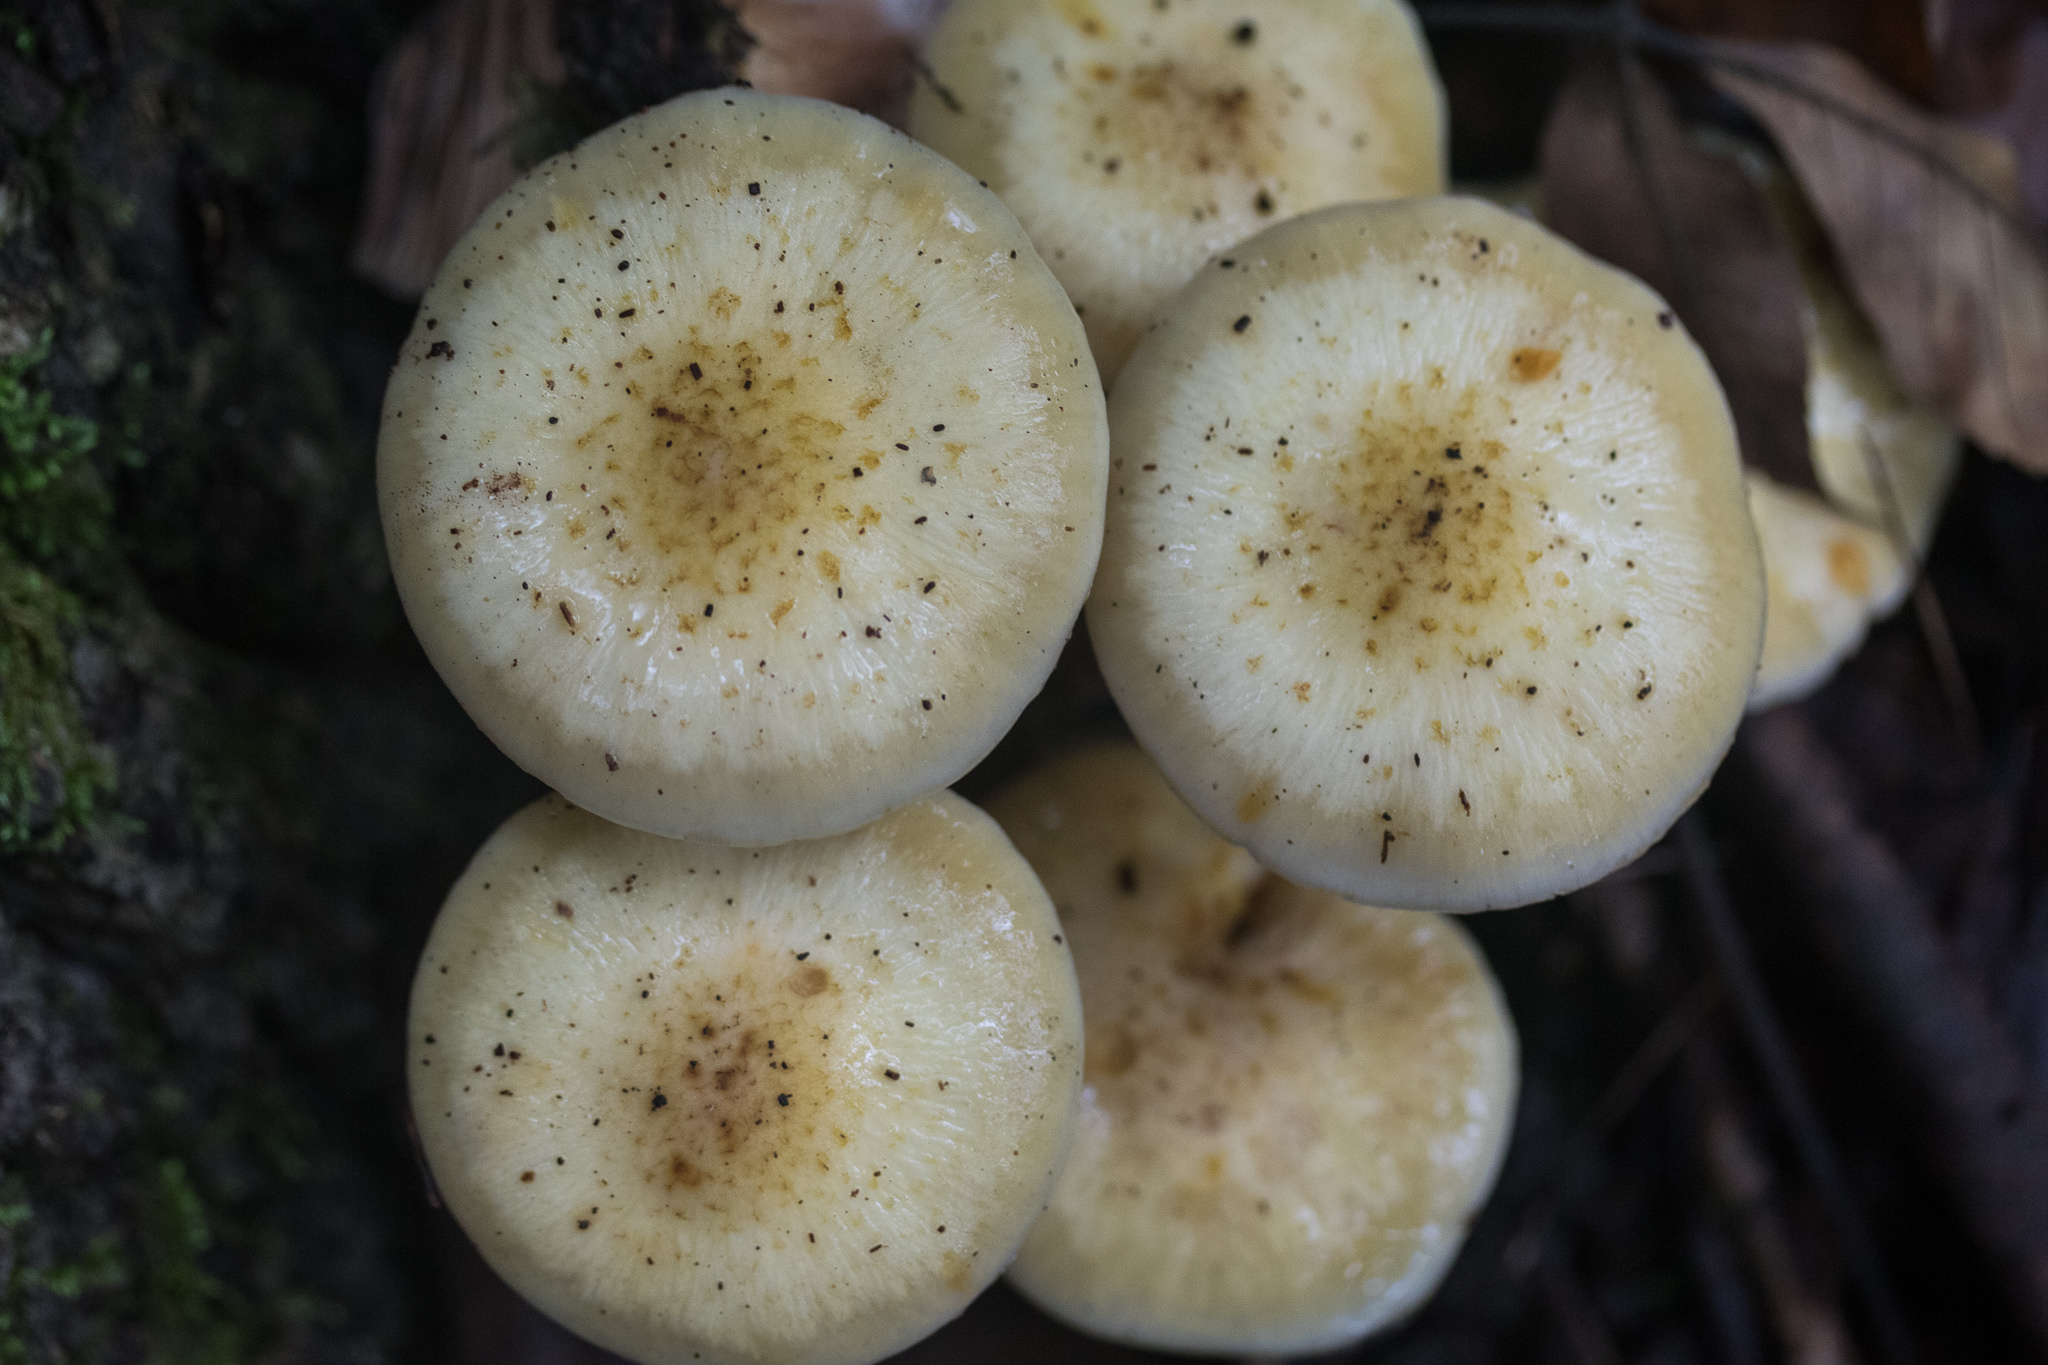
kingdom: Fungi
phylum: Basidiomycota
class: Agaricomycetes
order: Agaricales
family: Physalacriaceae
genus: Armillaria
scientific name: Armillaria mellea
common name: Honey fungus
